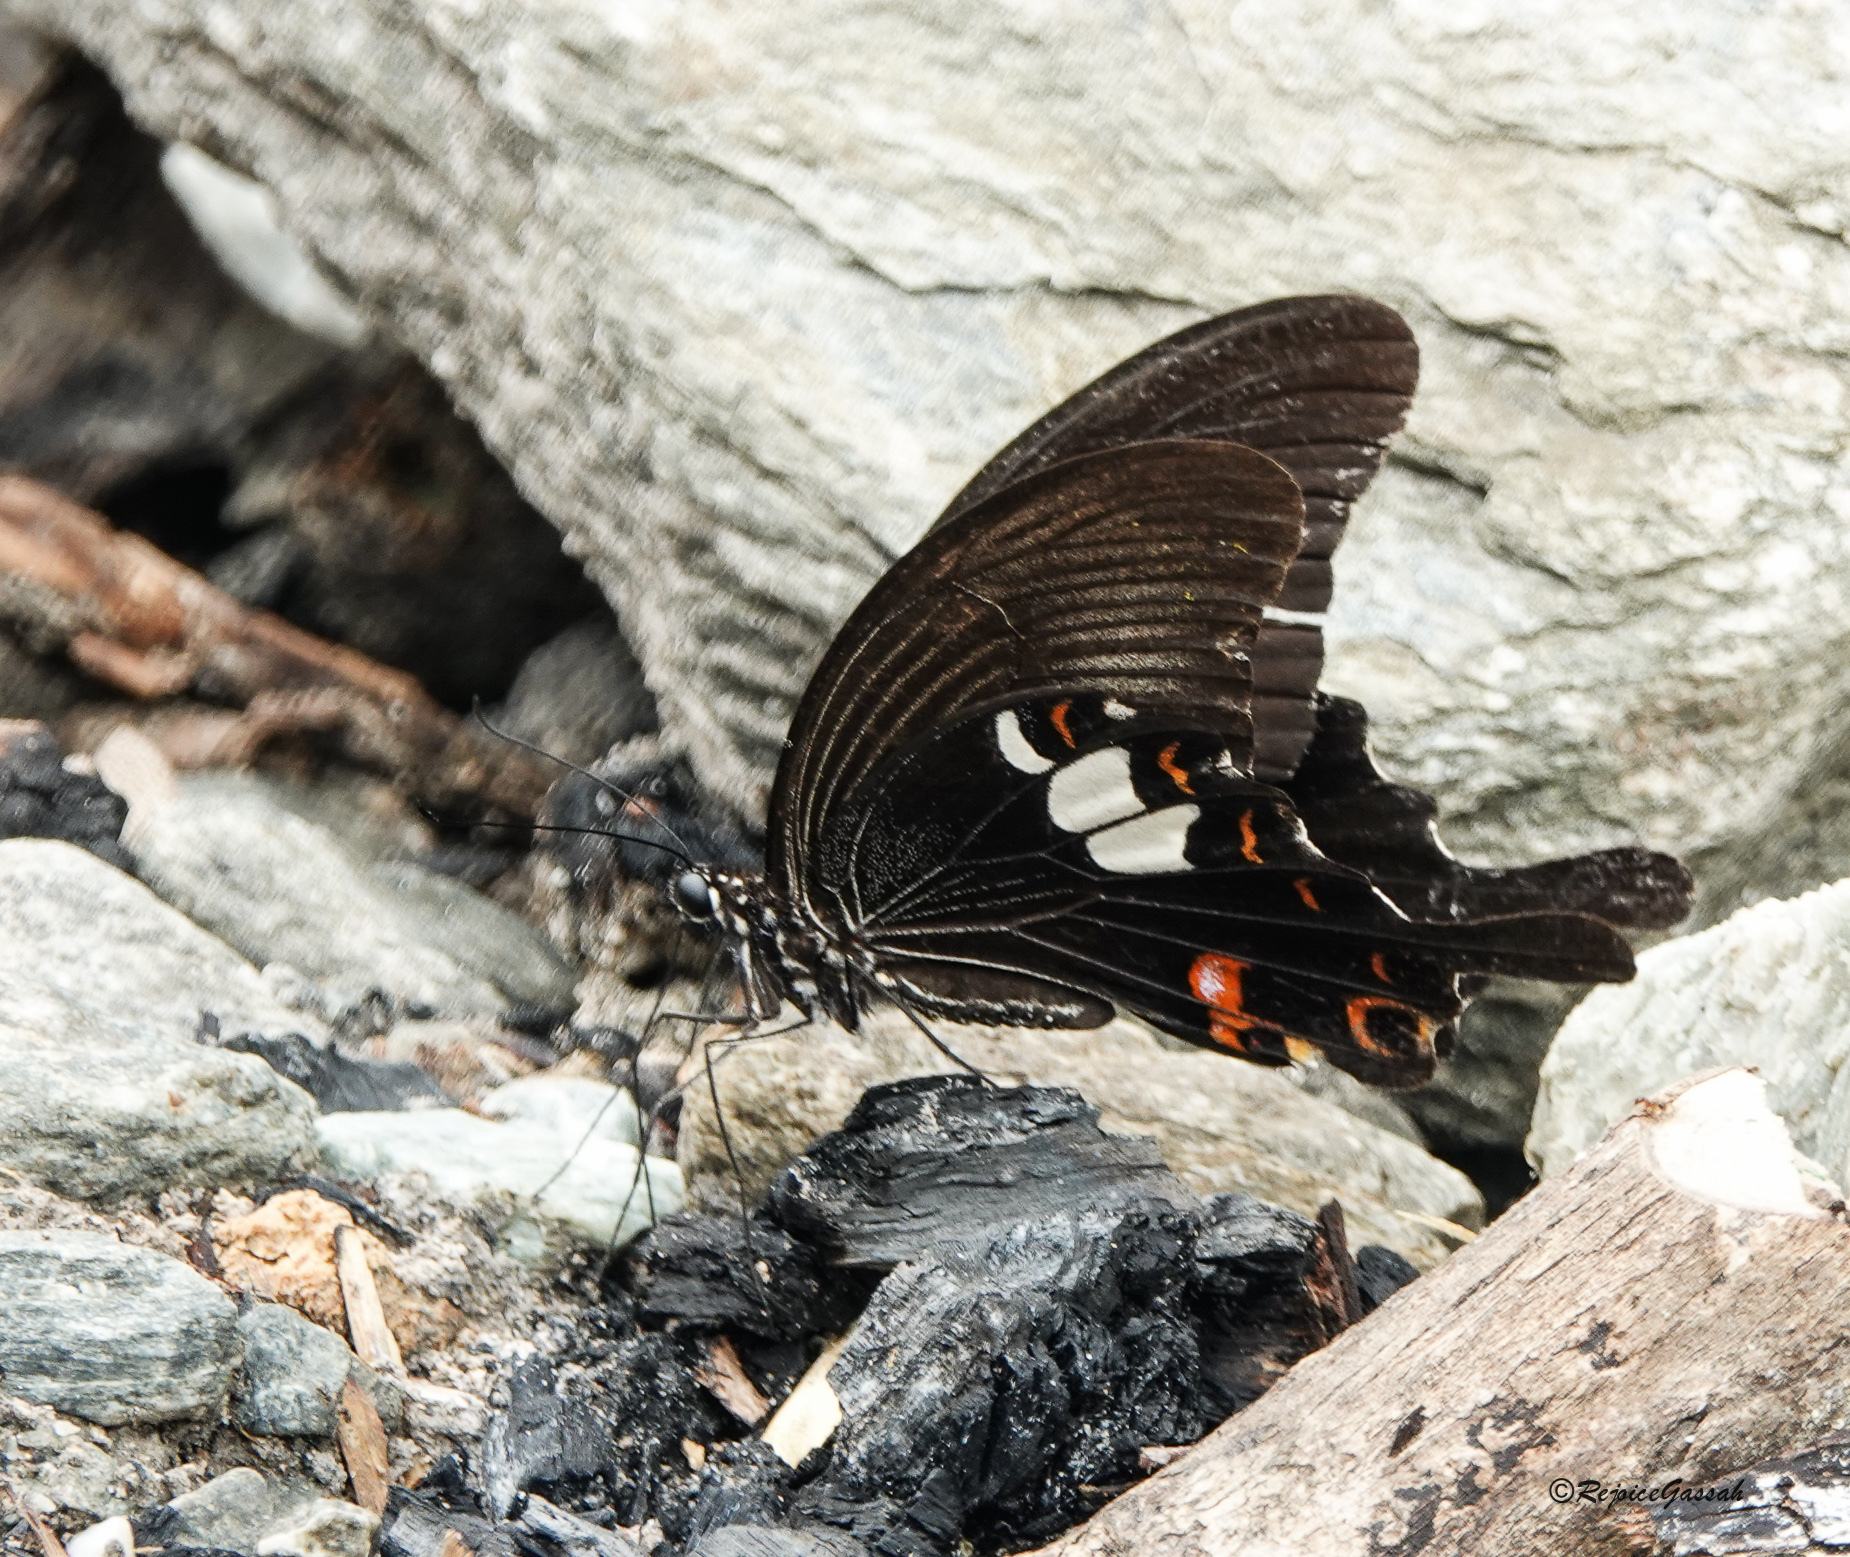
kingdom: Animalia
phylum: Arthropoda
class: Insecta
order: Lepidoptera
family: Papilionidae
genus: Papilio
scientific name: Papilio polytes
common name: Common mormon
